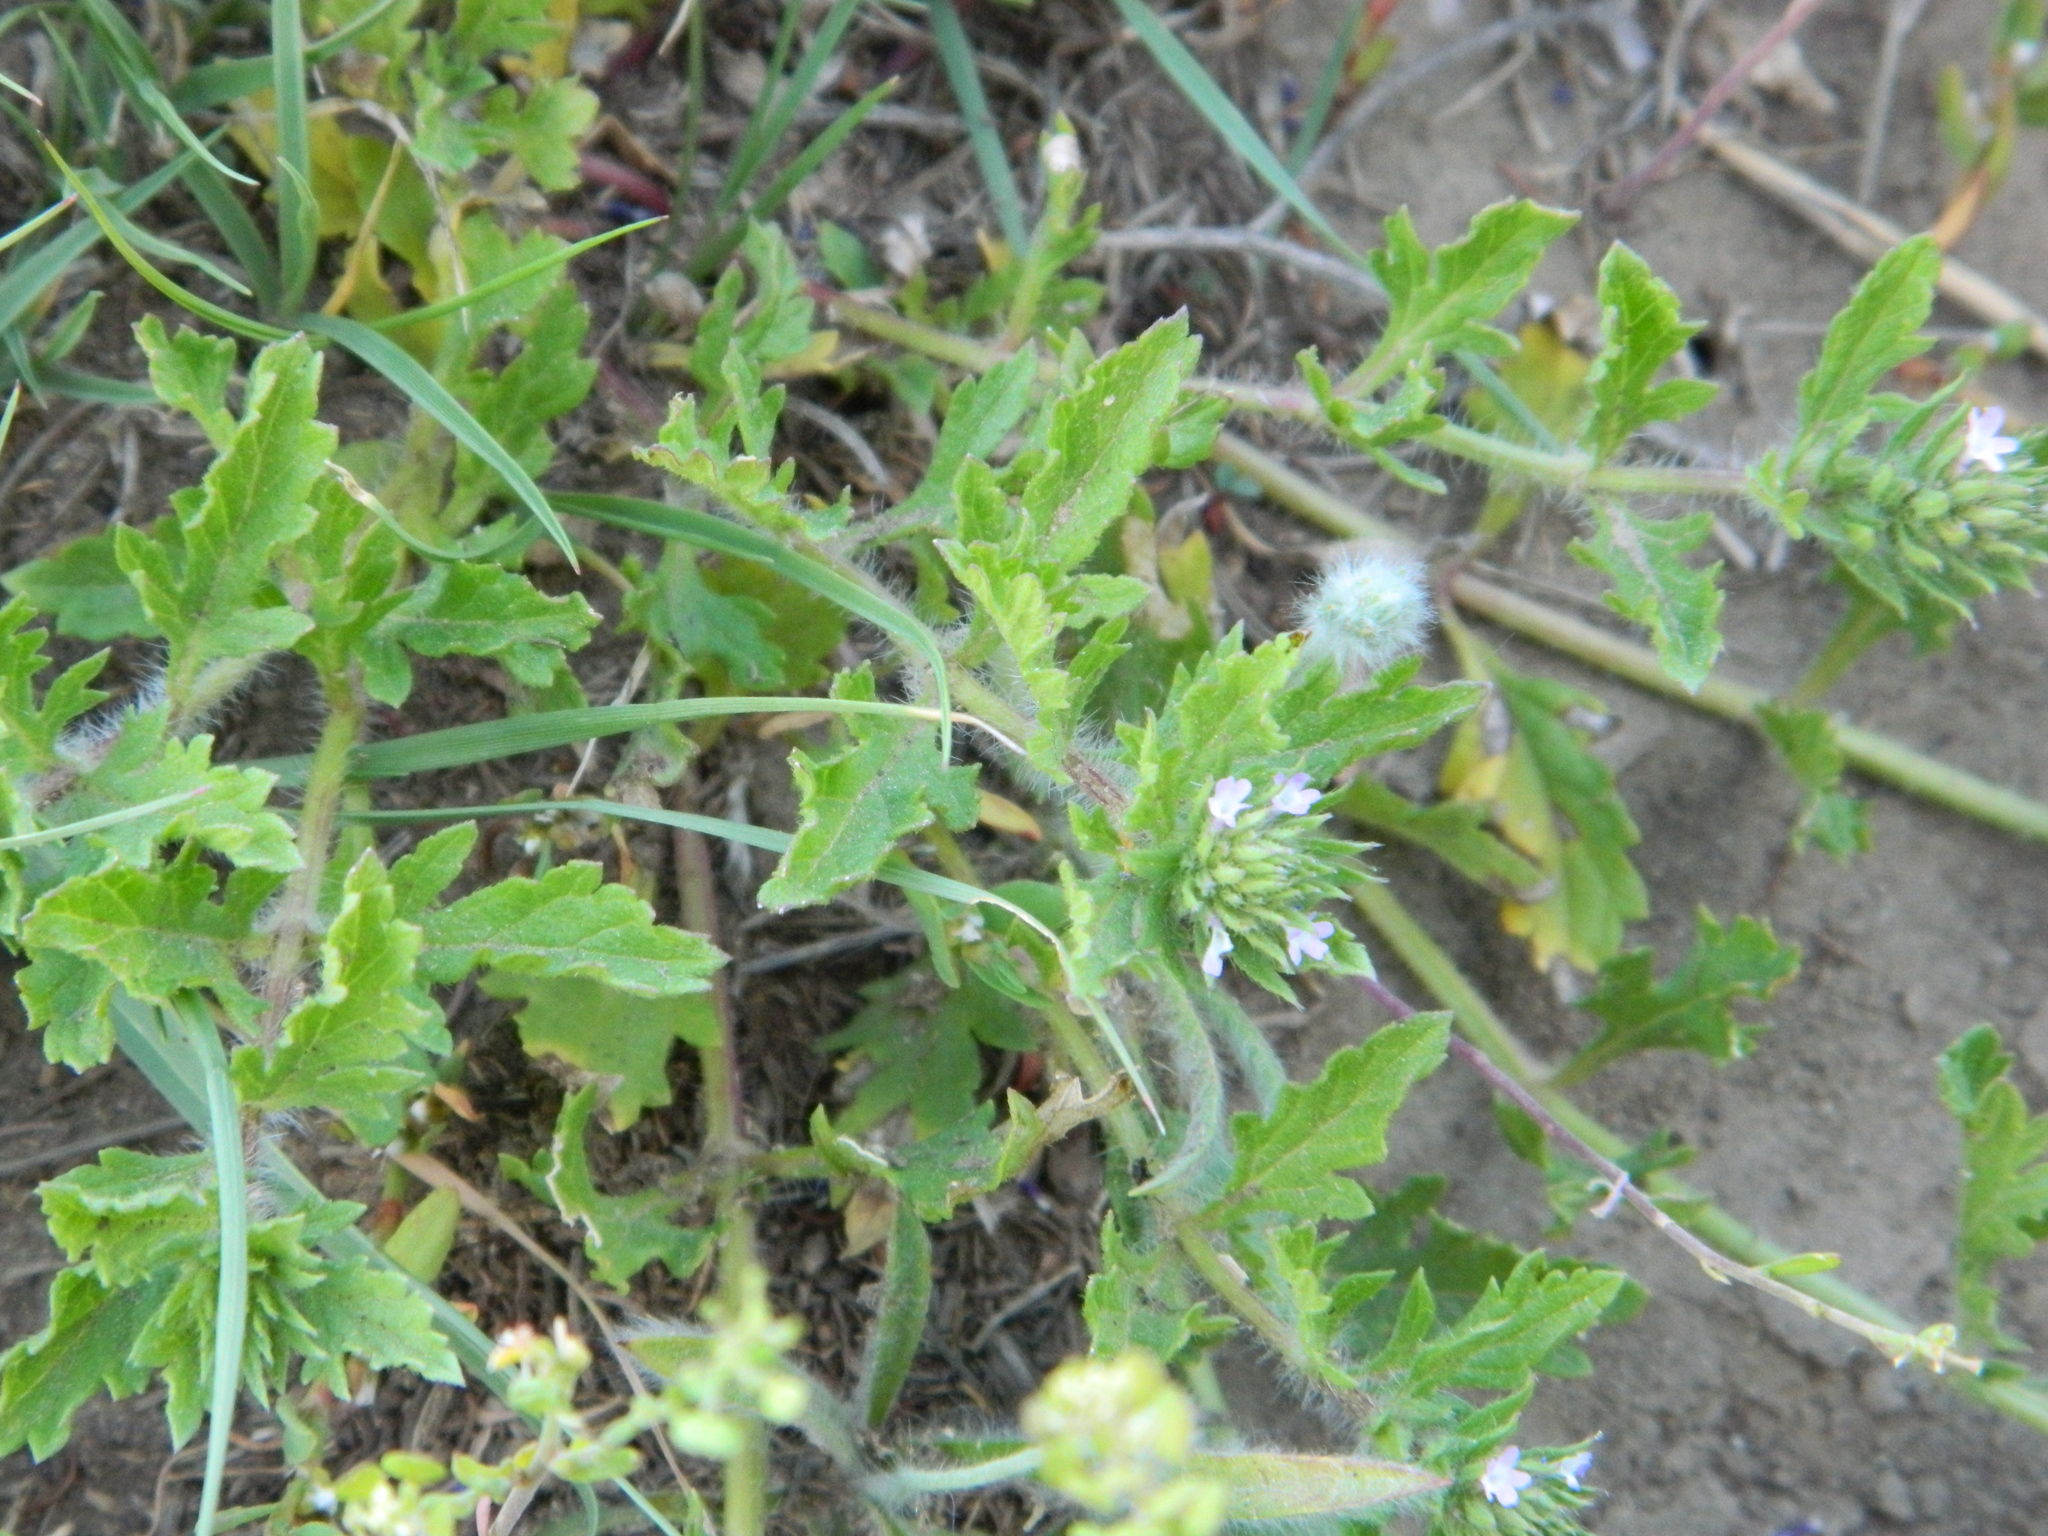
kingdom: Plantae
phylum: Tracheophyta
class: Magnoliopsida
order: Lamiales
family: Verbenaceae
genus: Verbena
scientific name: Verbena bracteata
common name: Bracted vervain
